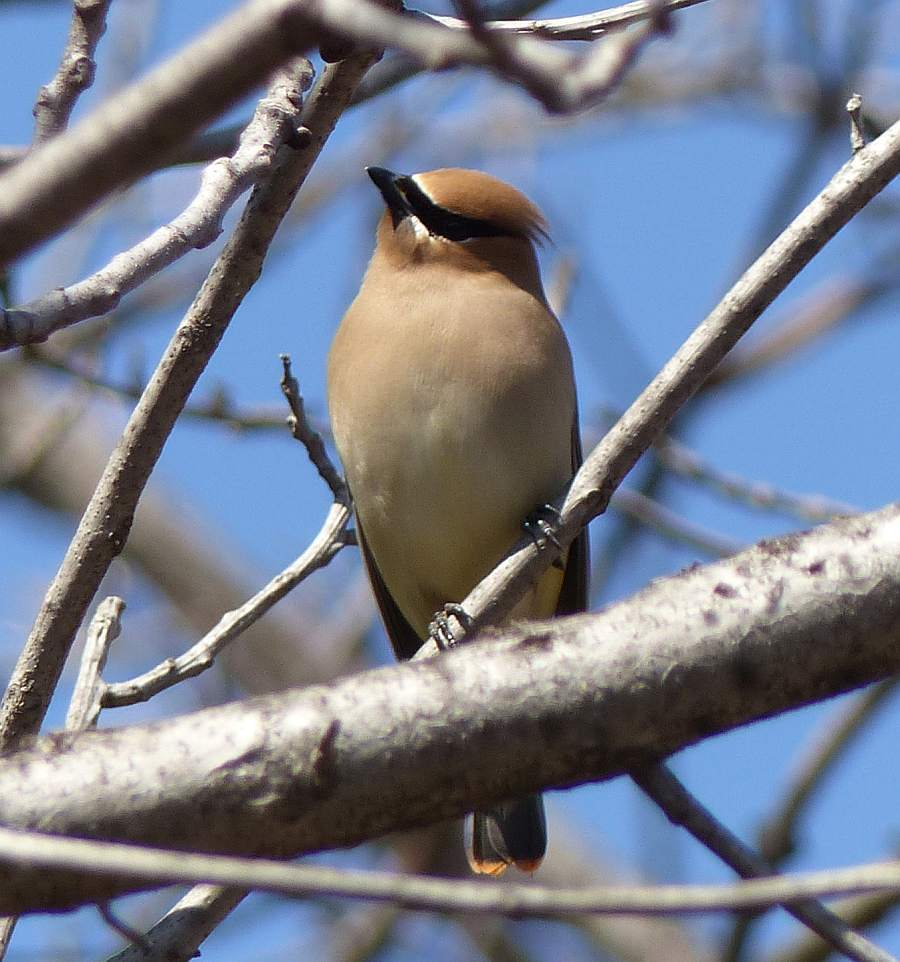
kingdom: Animalia
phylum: Chordata
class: Aves
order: Passeriformes
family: Bombycillidae
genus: Bombycilla
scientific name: Bombycilla cedrorum
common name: Cedar waxwing
